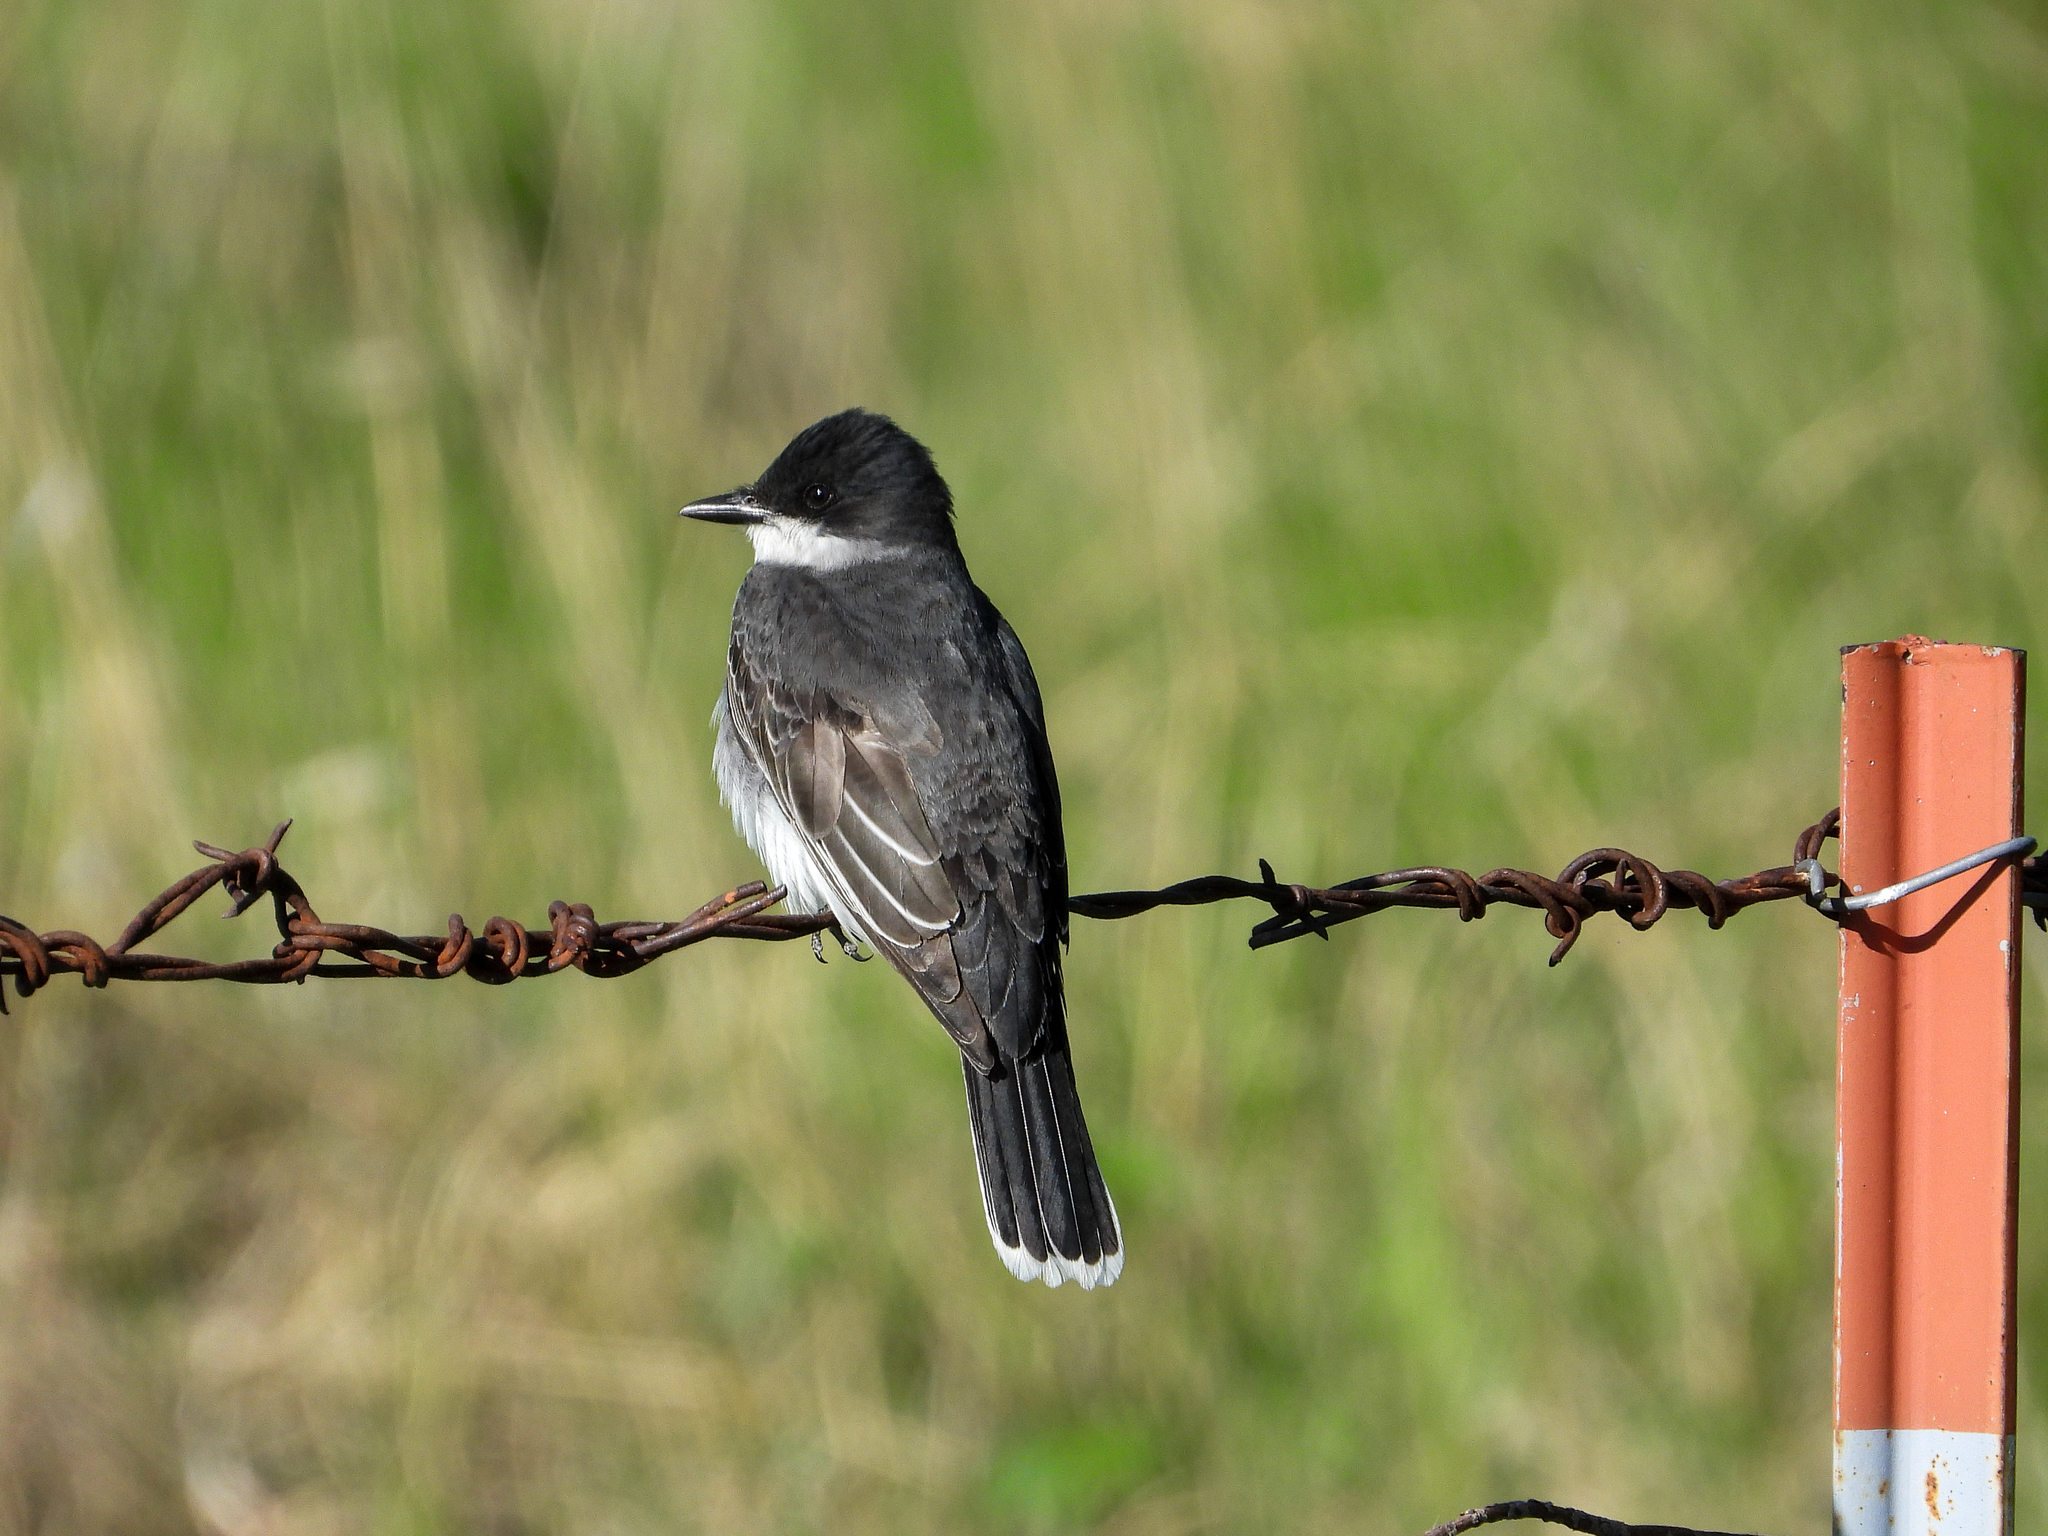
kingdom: Animalia
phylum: Chordata
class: Aves
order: Passeriformes
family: Tyrannidae
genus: Tyrannus
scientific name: Tyrannus tyrannus
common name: Eastern kingbird
